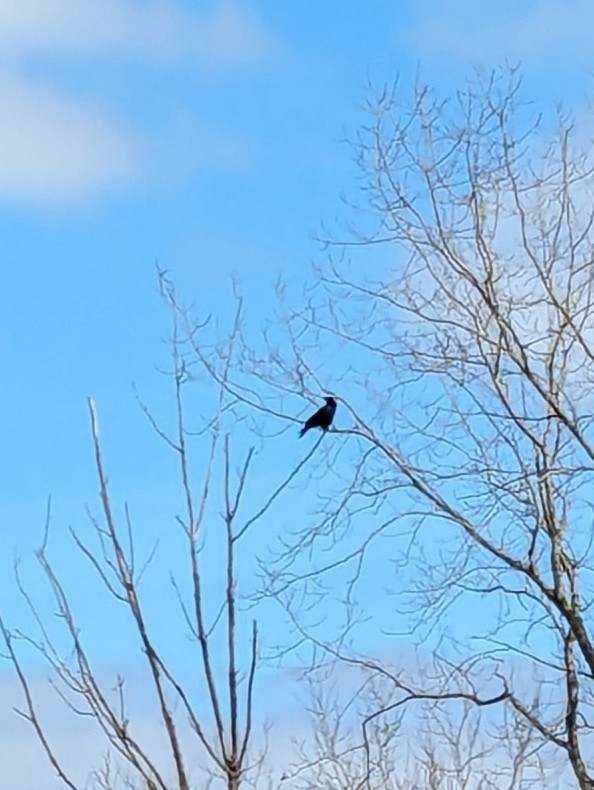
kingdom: Animalia
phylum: Chordata
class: Aves
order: Passeriformes
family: Corvidae
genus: Corvus
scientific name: Corvus brachyrhynchos
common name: American crow
